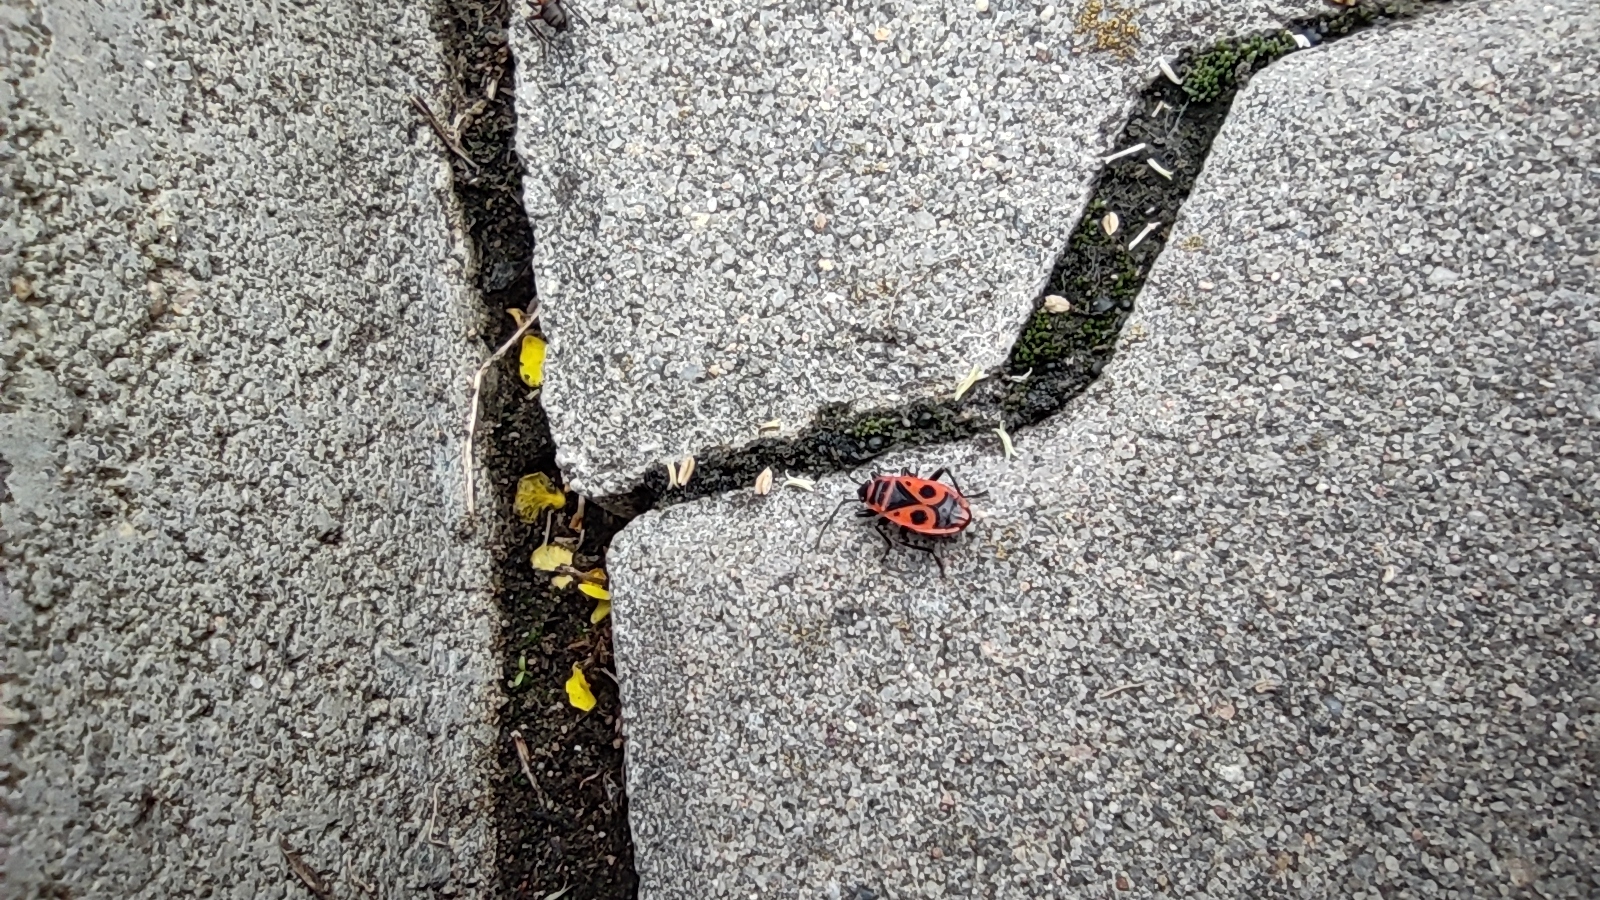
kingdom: Animalia
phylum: Arthropoda
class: Insecta
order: Hemiptera
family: Pyrrhocoridae
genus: Pyrrhocoris
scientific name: Pyrrhocoris apterus
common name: Firebug
